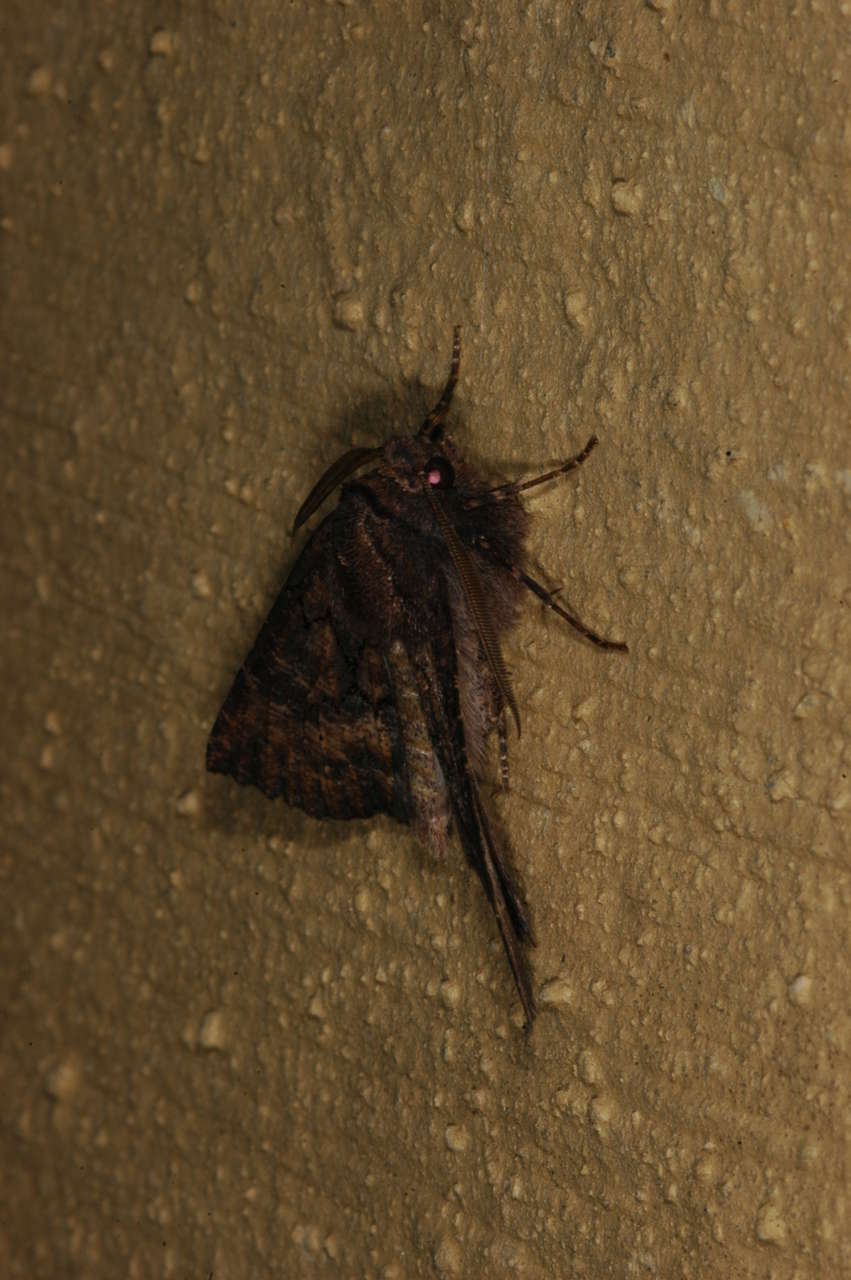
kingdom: Animalia
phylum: Arthropoda
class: Insecta
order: Lepidoptera
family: Geometridae
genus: Nisista
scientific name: Nisista serrata
